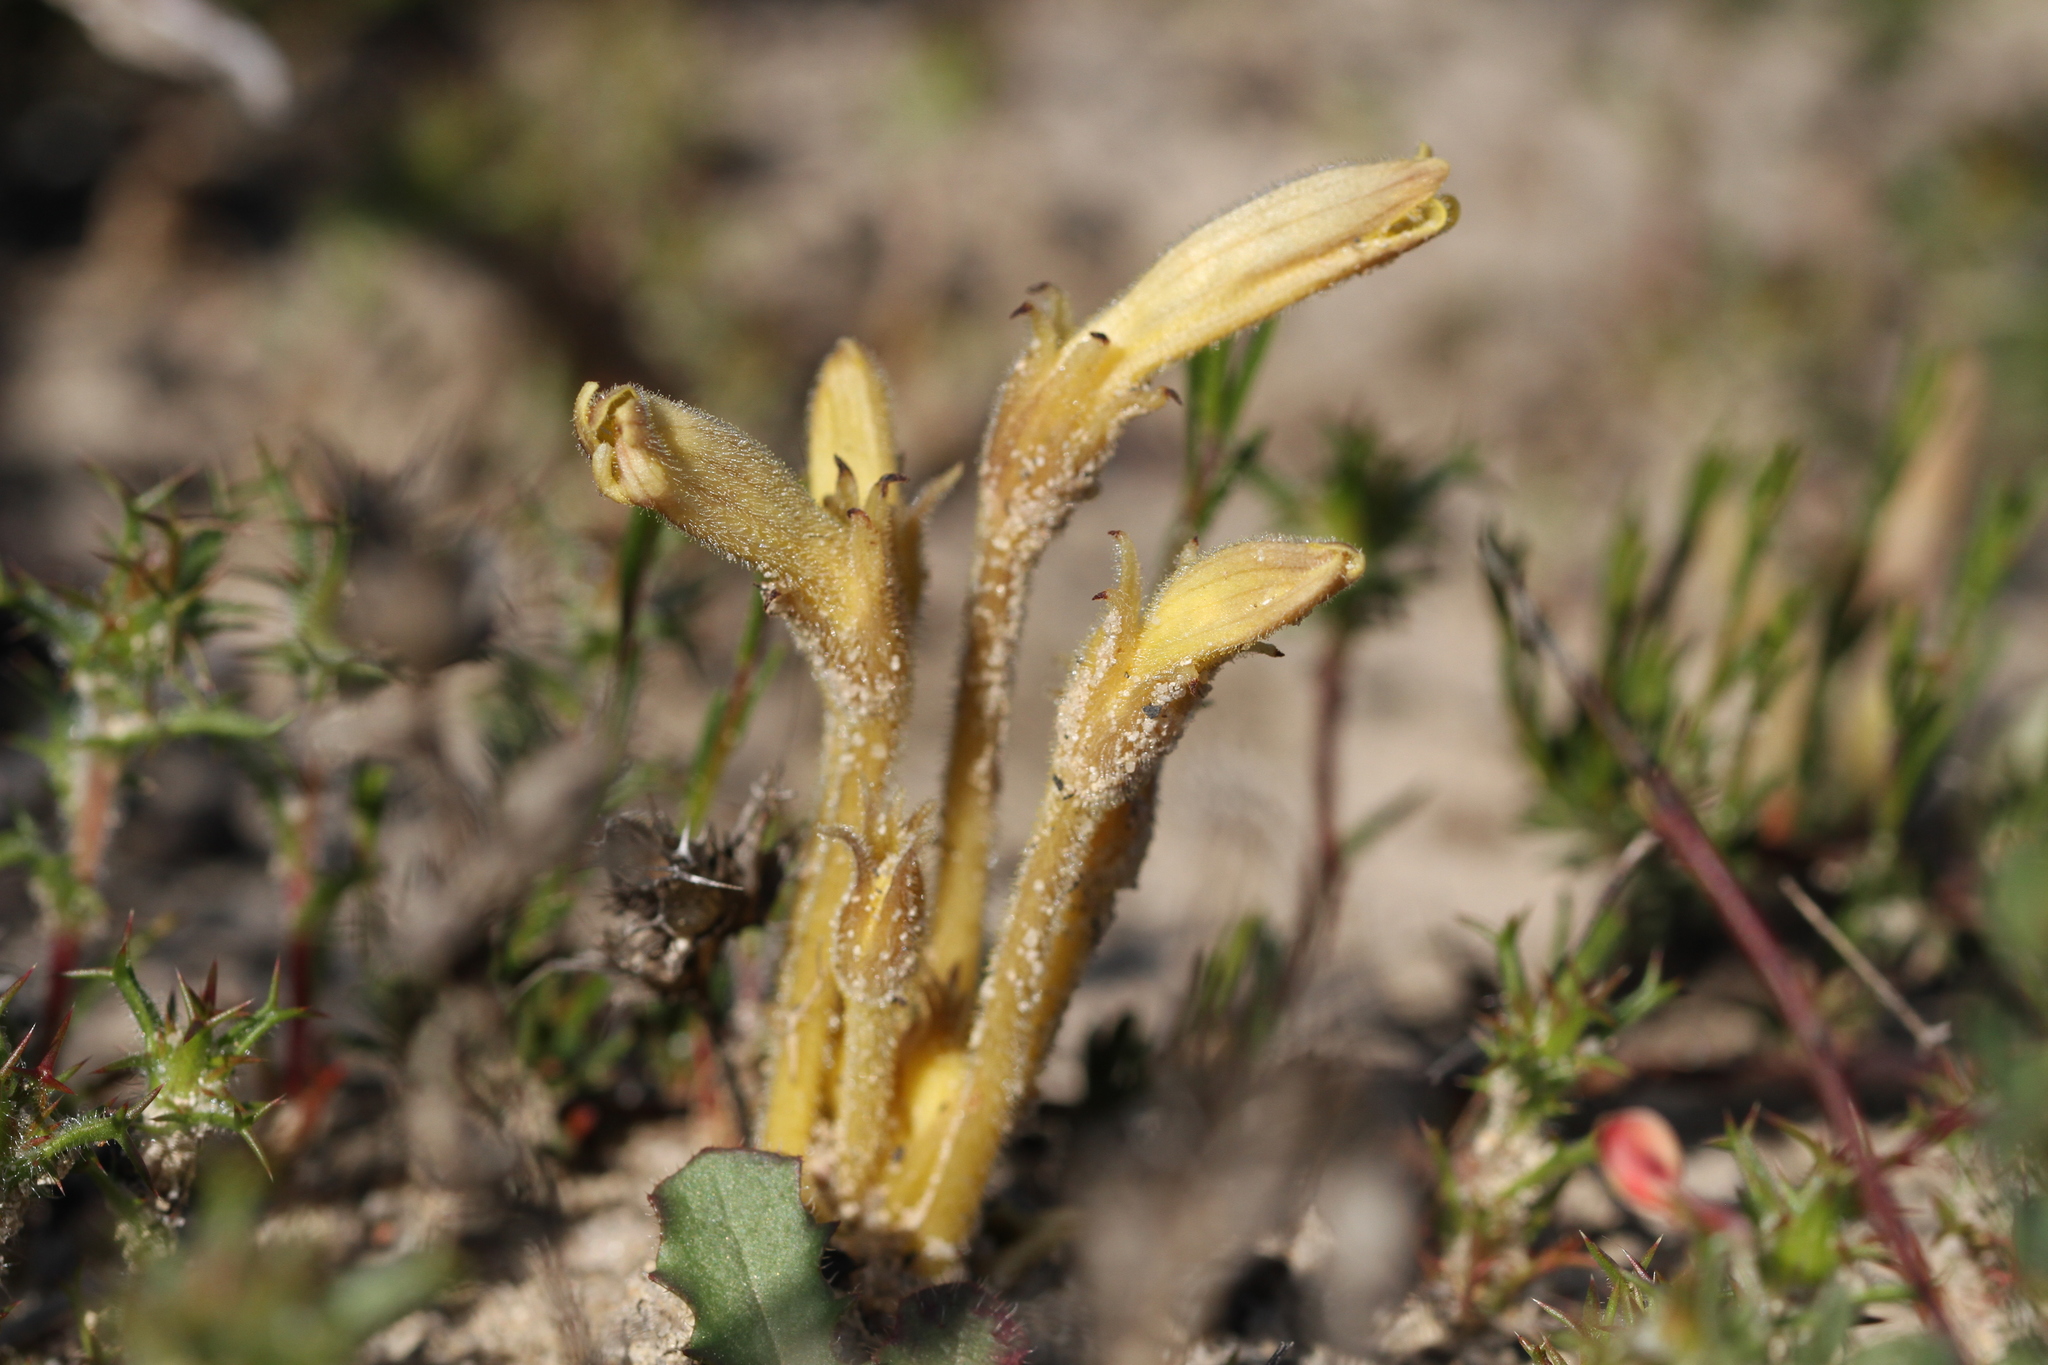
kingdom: Plantae
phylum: Tracheophyta
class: Magnoliopsida
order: Lamiales
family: Orobanchaceae
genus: Aphyllon
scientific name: Aphyllon franciscanum
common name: San francisco broomrape
